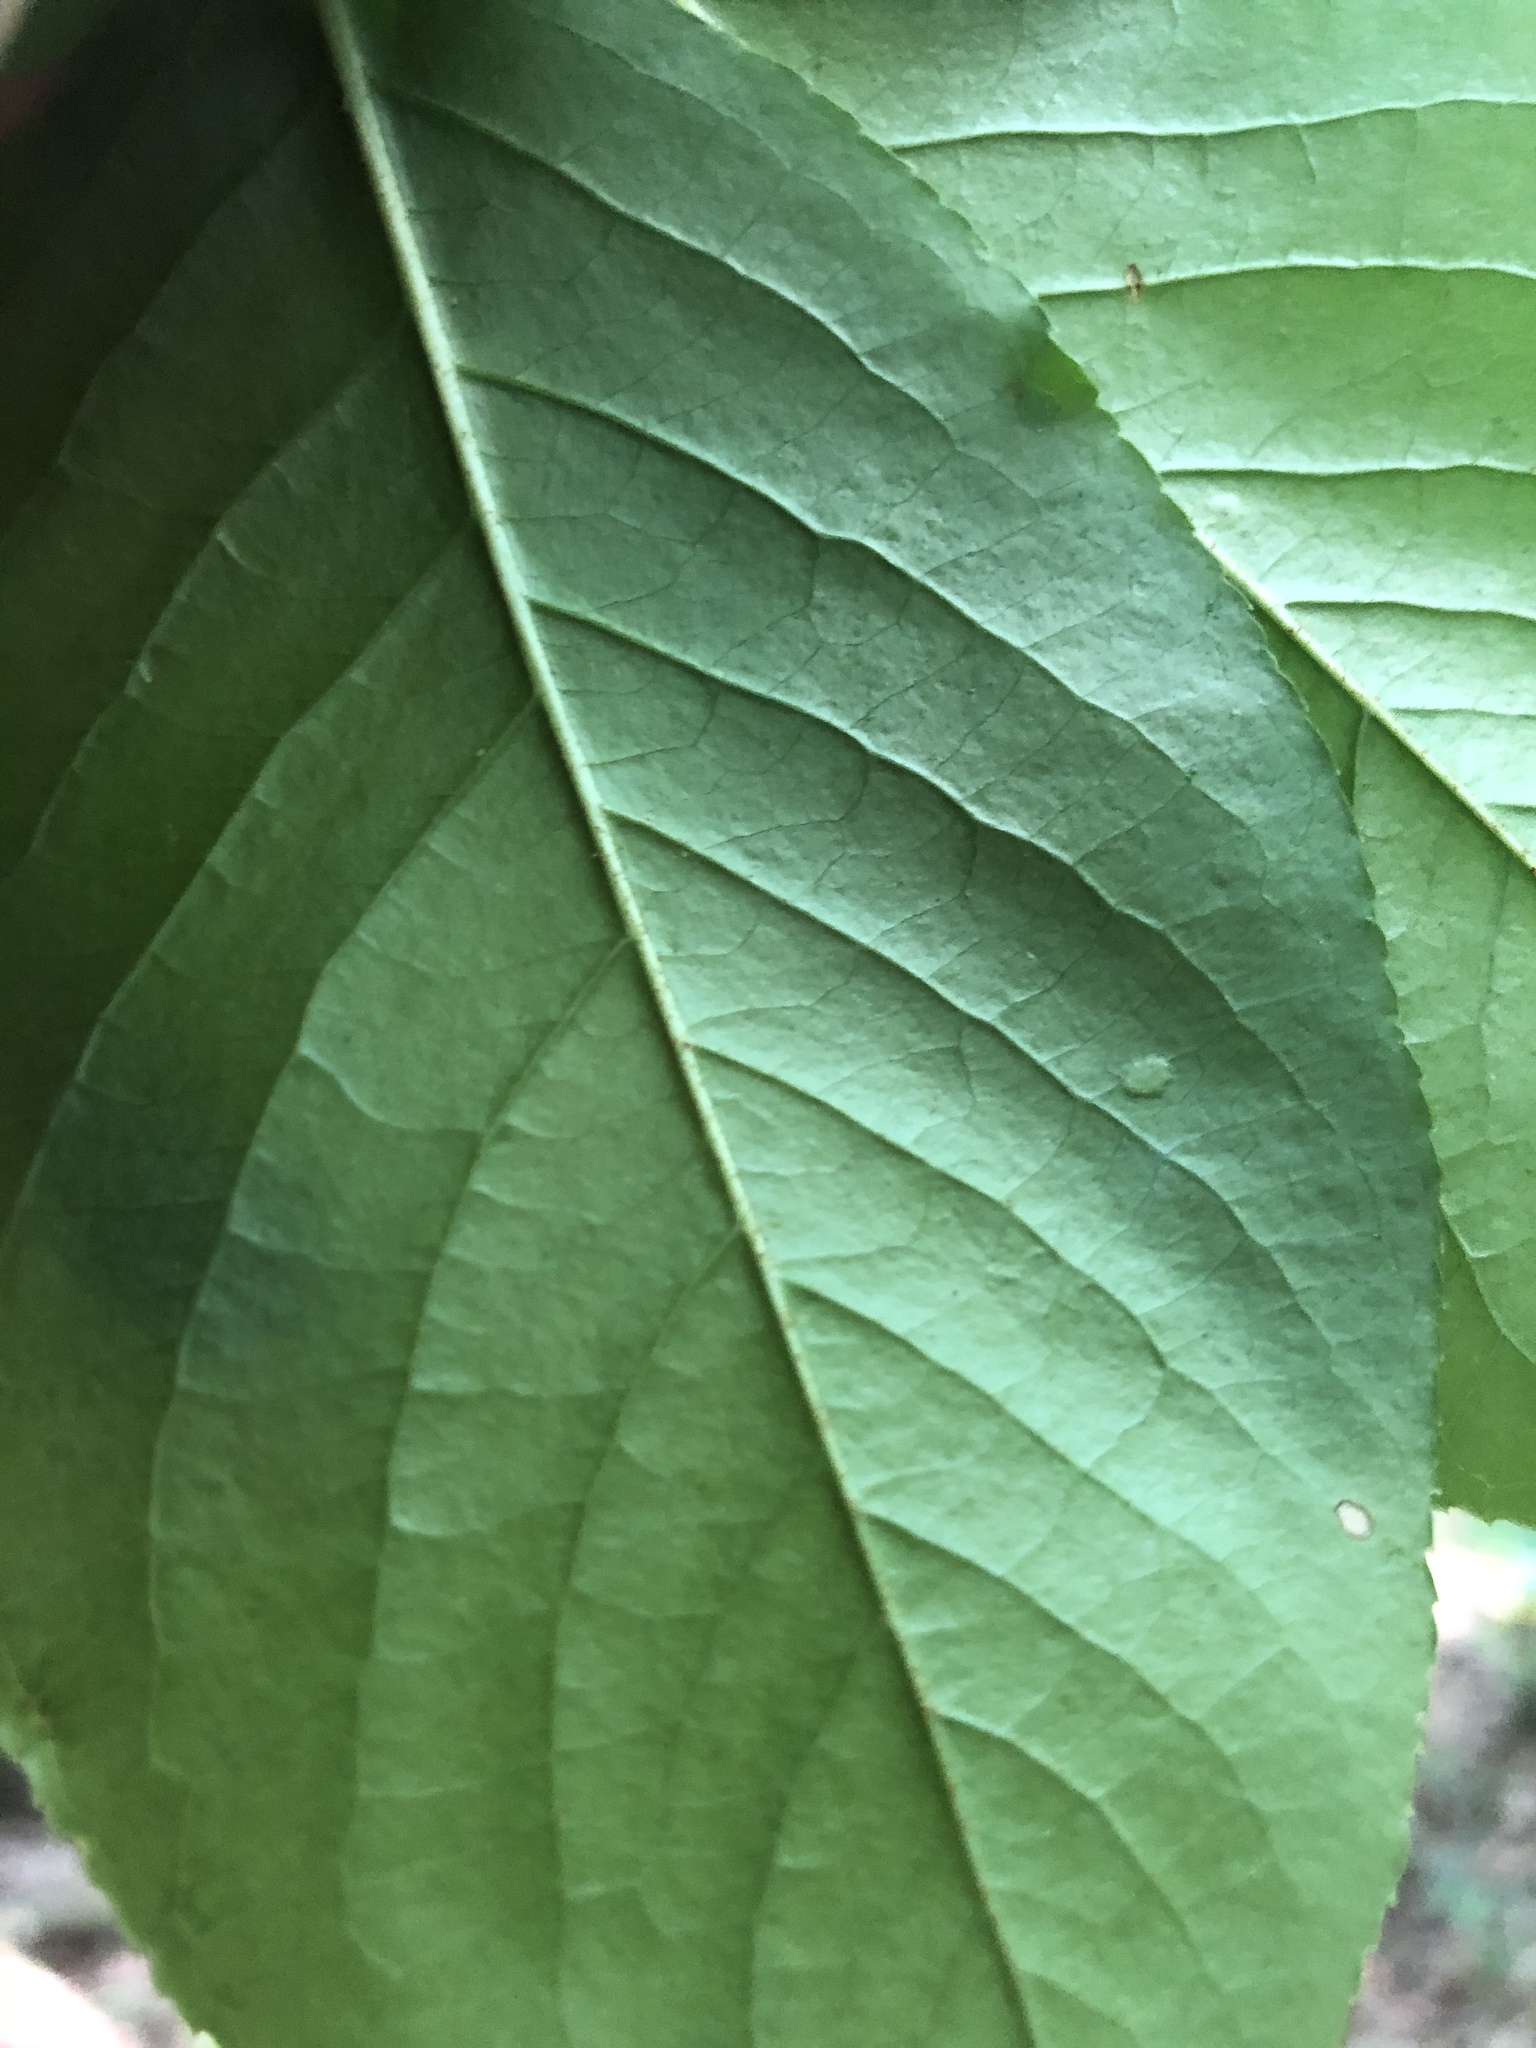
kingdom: Plantae
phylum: Tracheophyta
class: Magnoliopsida
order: Dipsacales
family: Viburnaceae
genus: Viburnum
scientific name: Viburnum prunifolium
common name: Black haw
